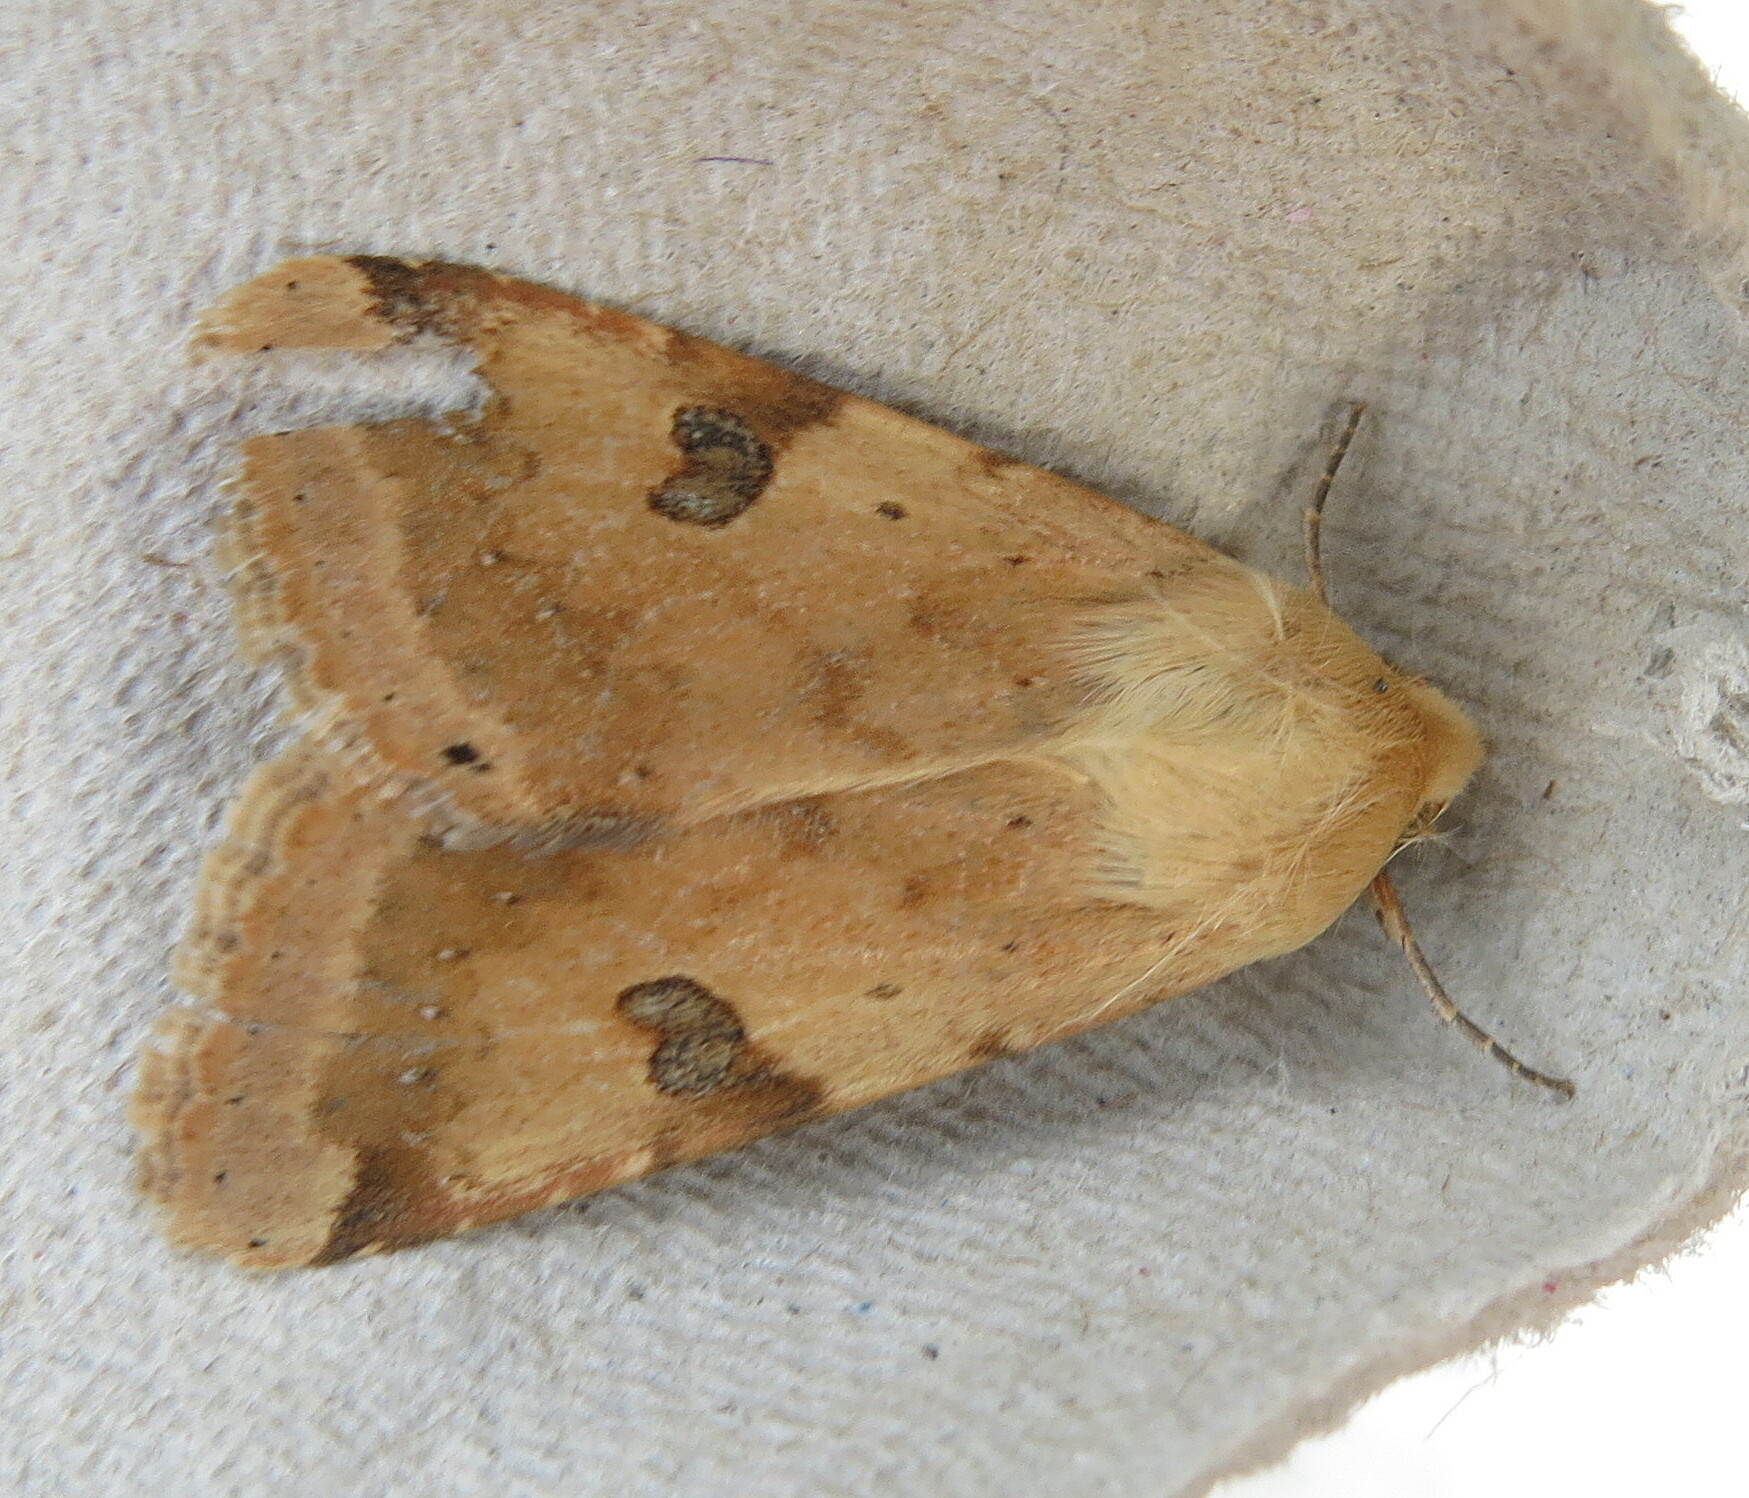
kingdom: Animalia
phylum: Arthropoda
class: Insecta
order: Lepidoptera
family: Noctuidae
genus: Heliothis
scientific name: Heliothis peltigera
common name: Bordered straw
